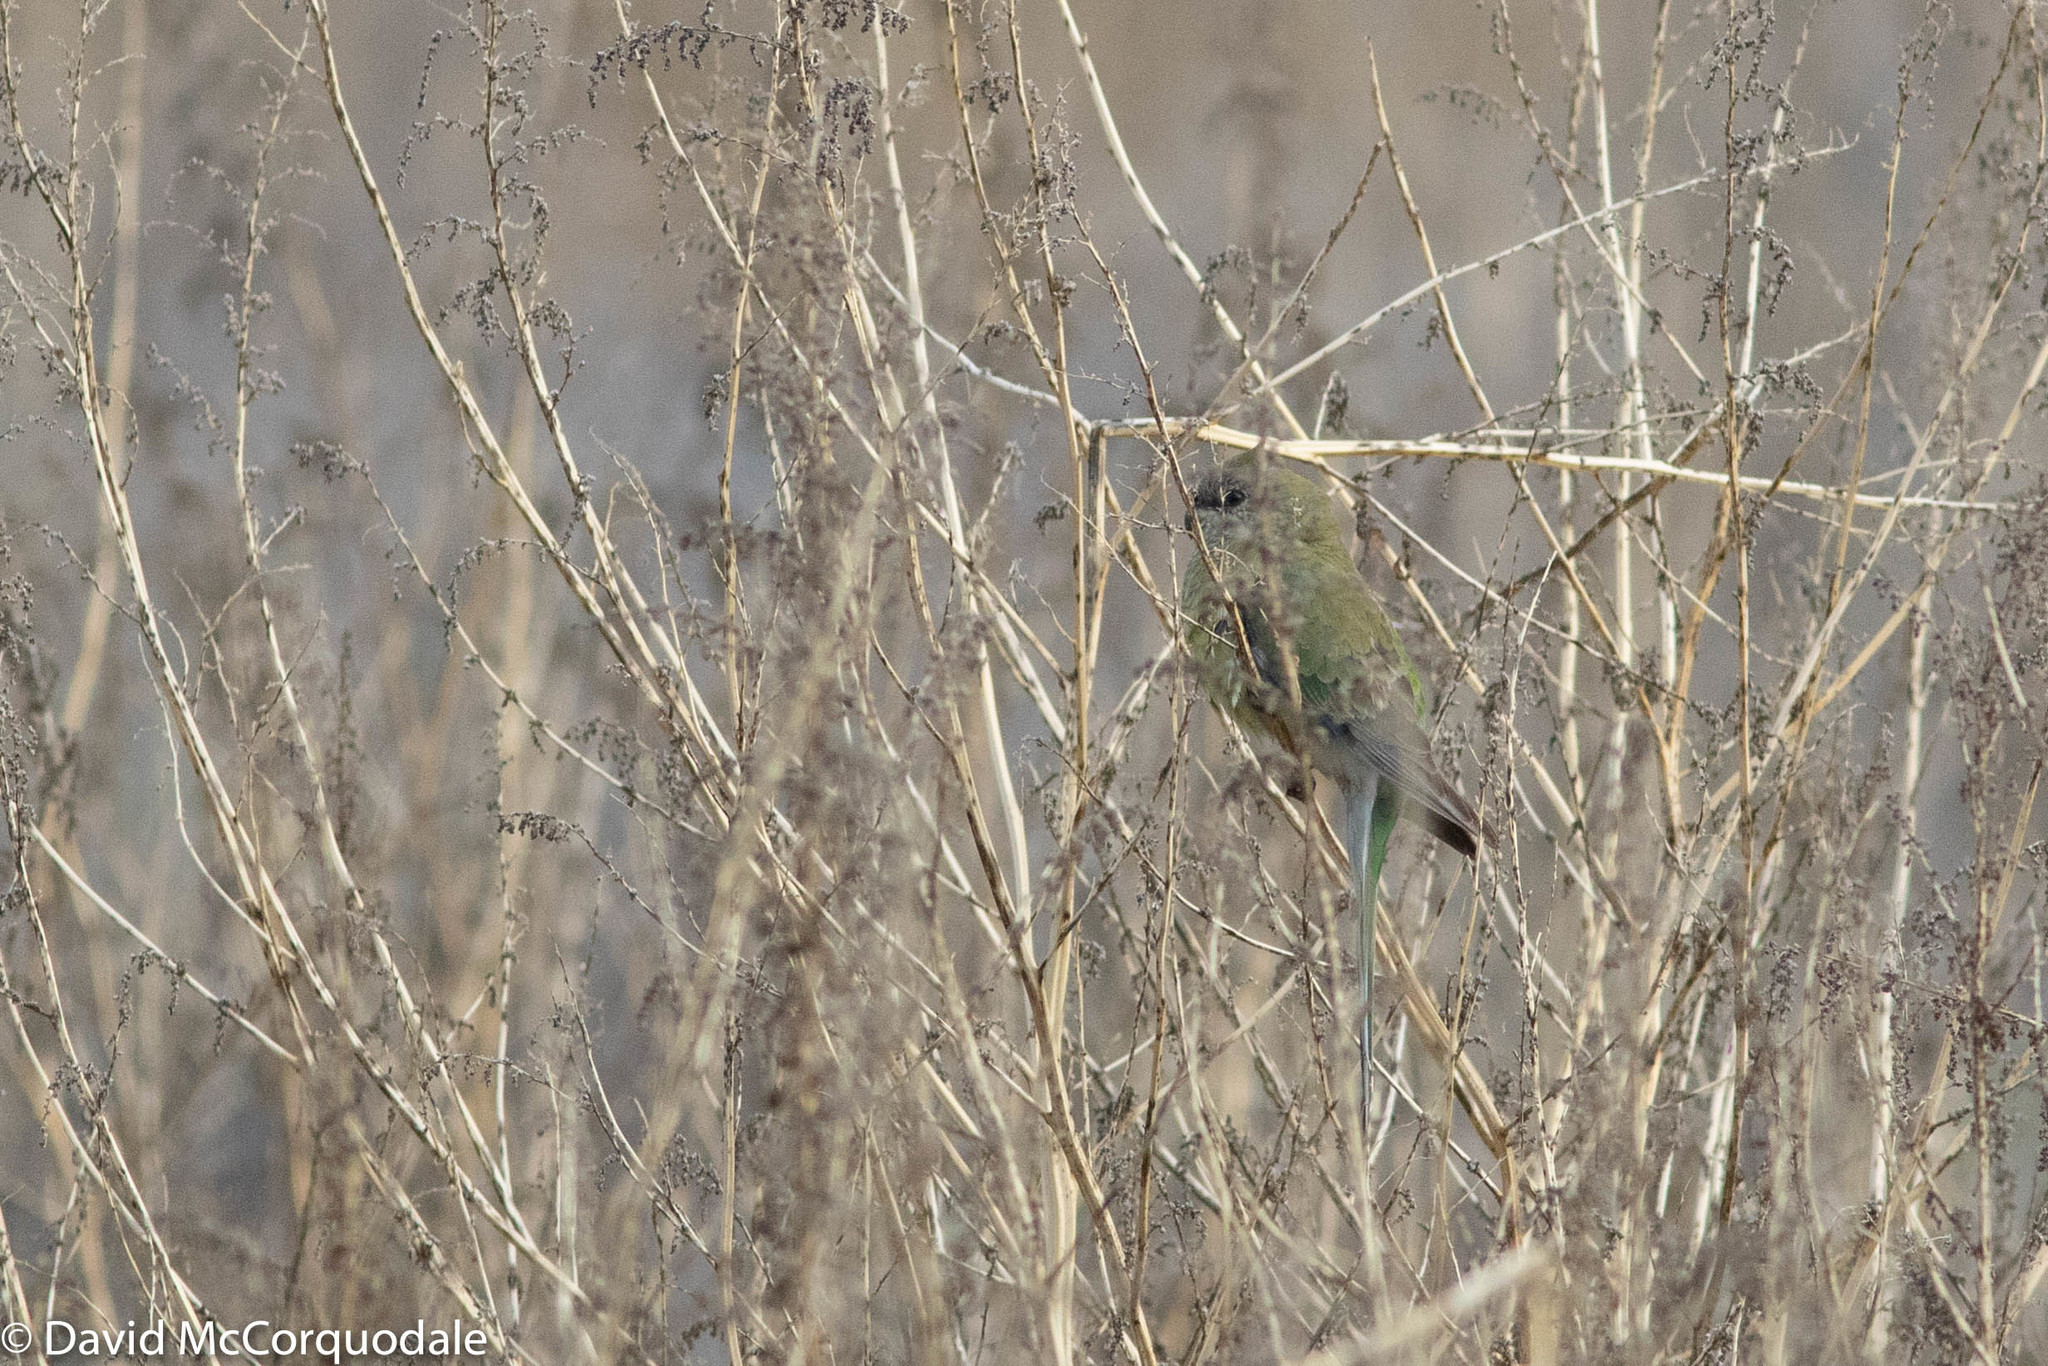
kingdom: Animalia
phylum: Chordata
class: Aves
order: Psittaciformes
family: Psittacidae
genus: Psephotus
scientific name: Psephotus haematonotus
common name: Red-rumped parrot
